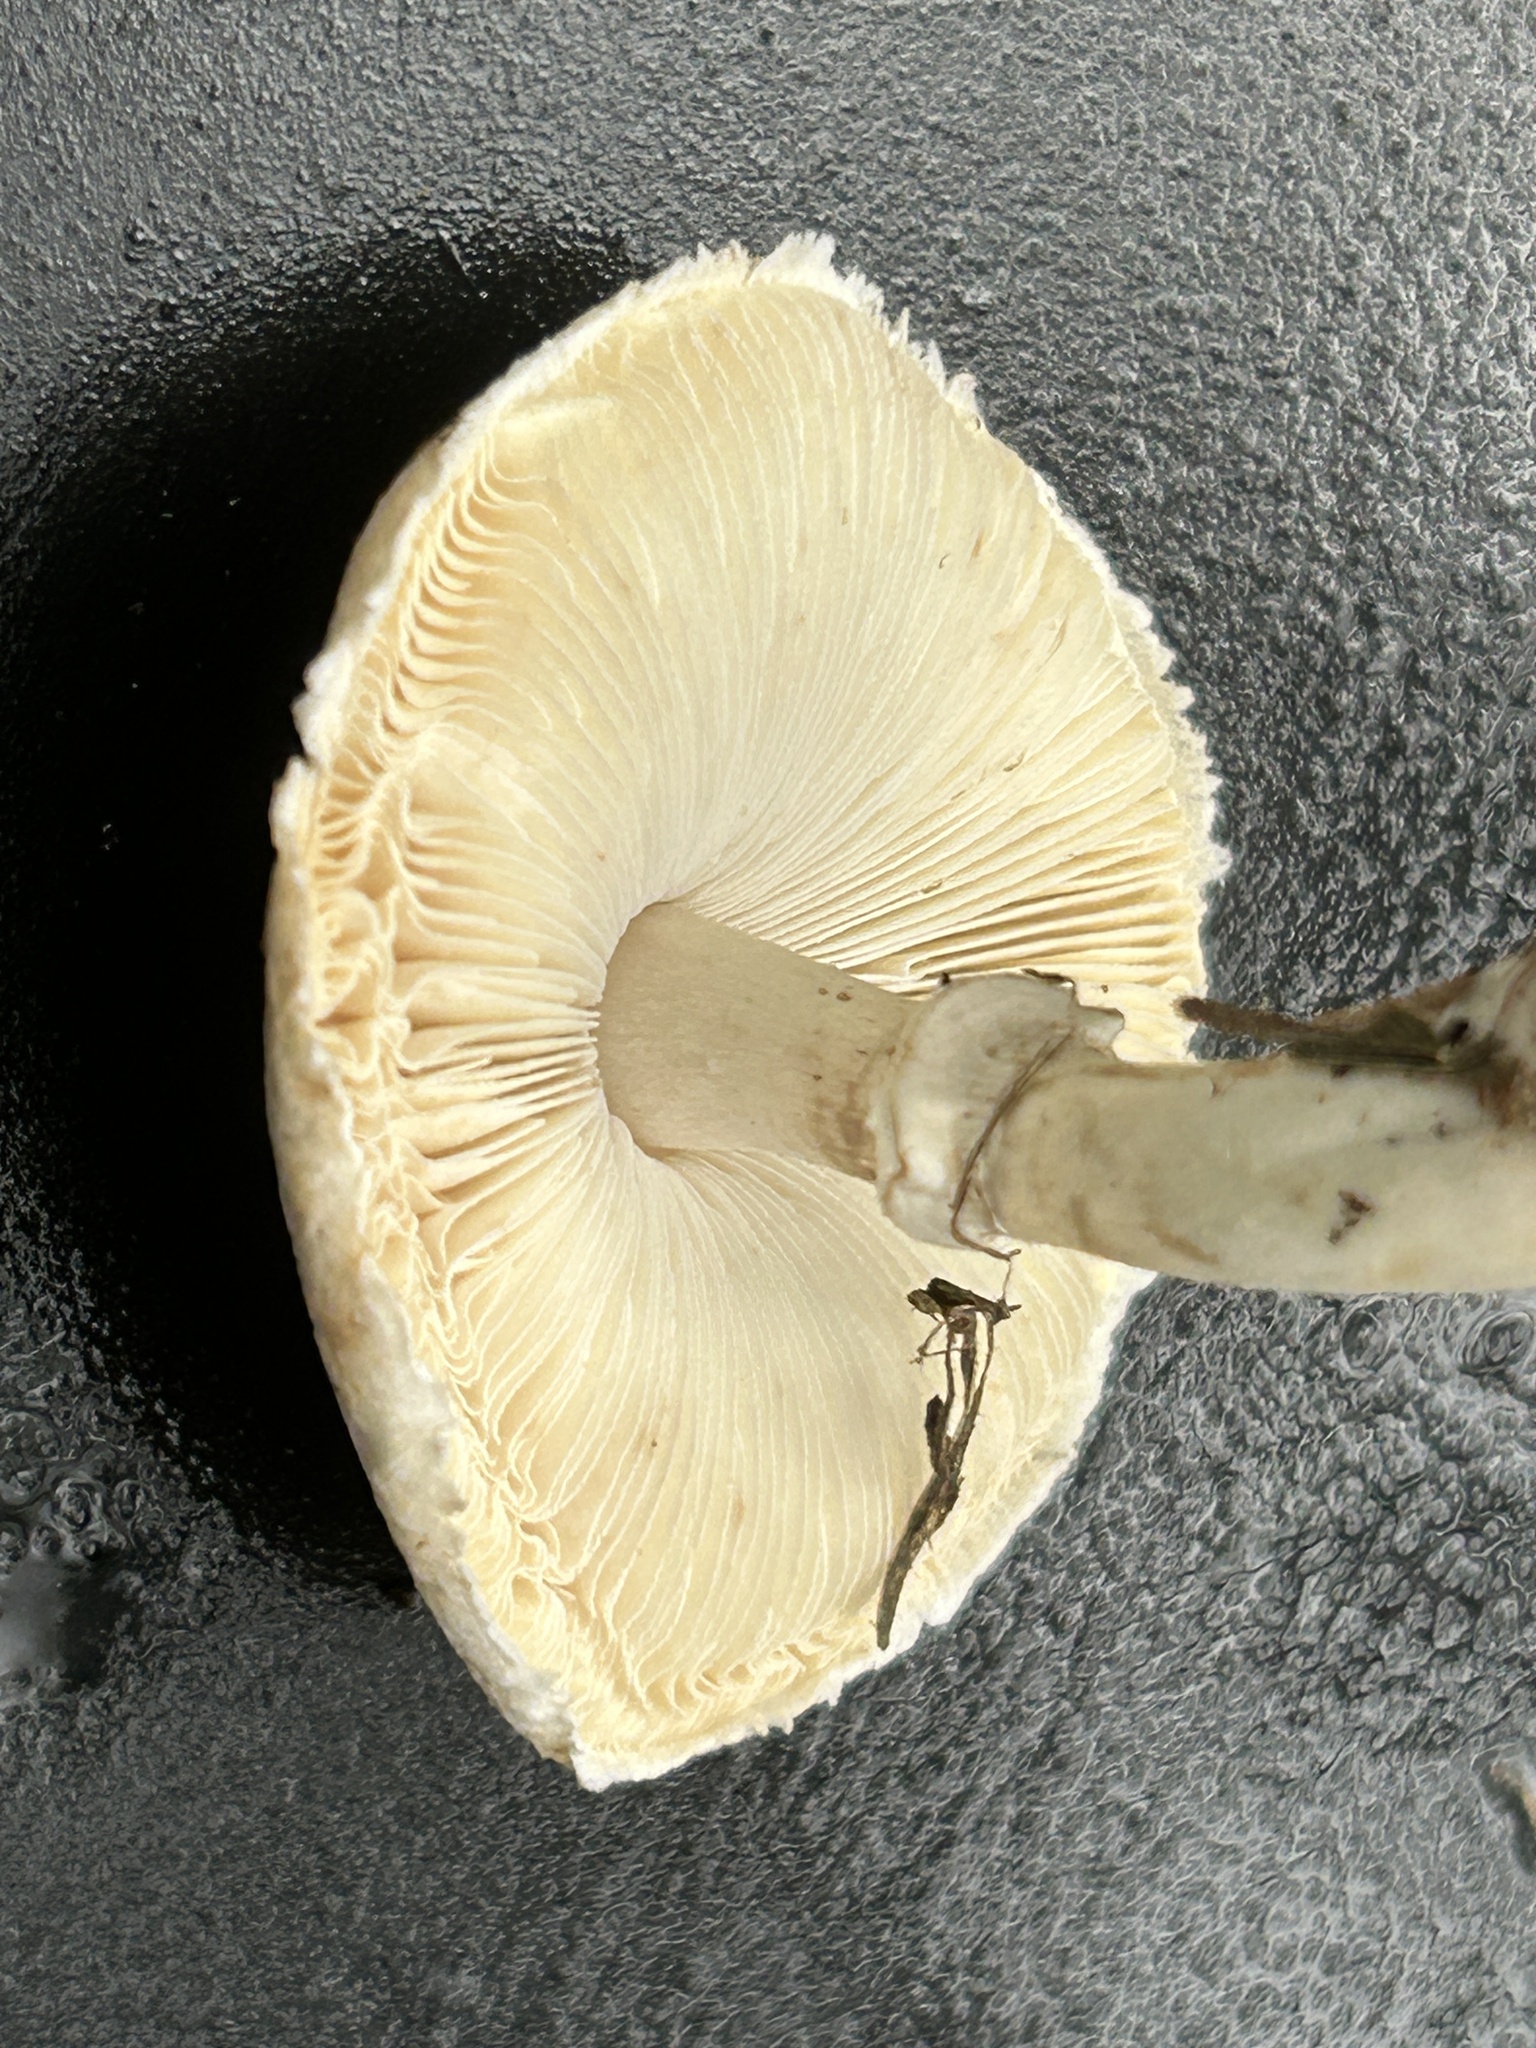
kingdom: Fungi
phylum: Basidiomycota
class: Agaricomycetes
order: Agaricales
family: Agaricaceae
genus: Leucoagaricus
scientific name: Leucoagaricus leucothites
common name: White dapperling
